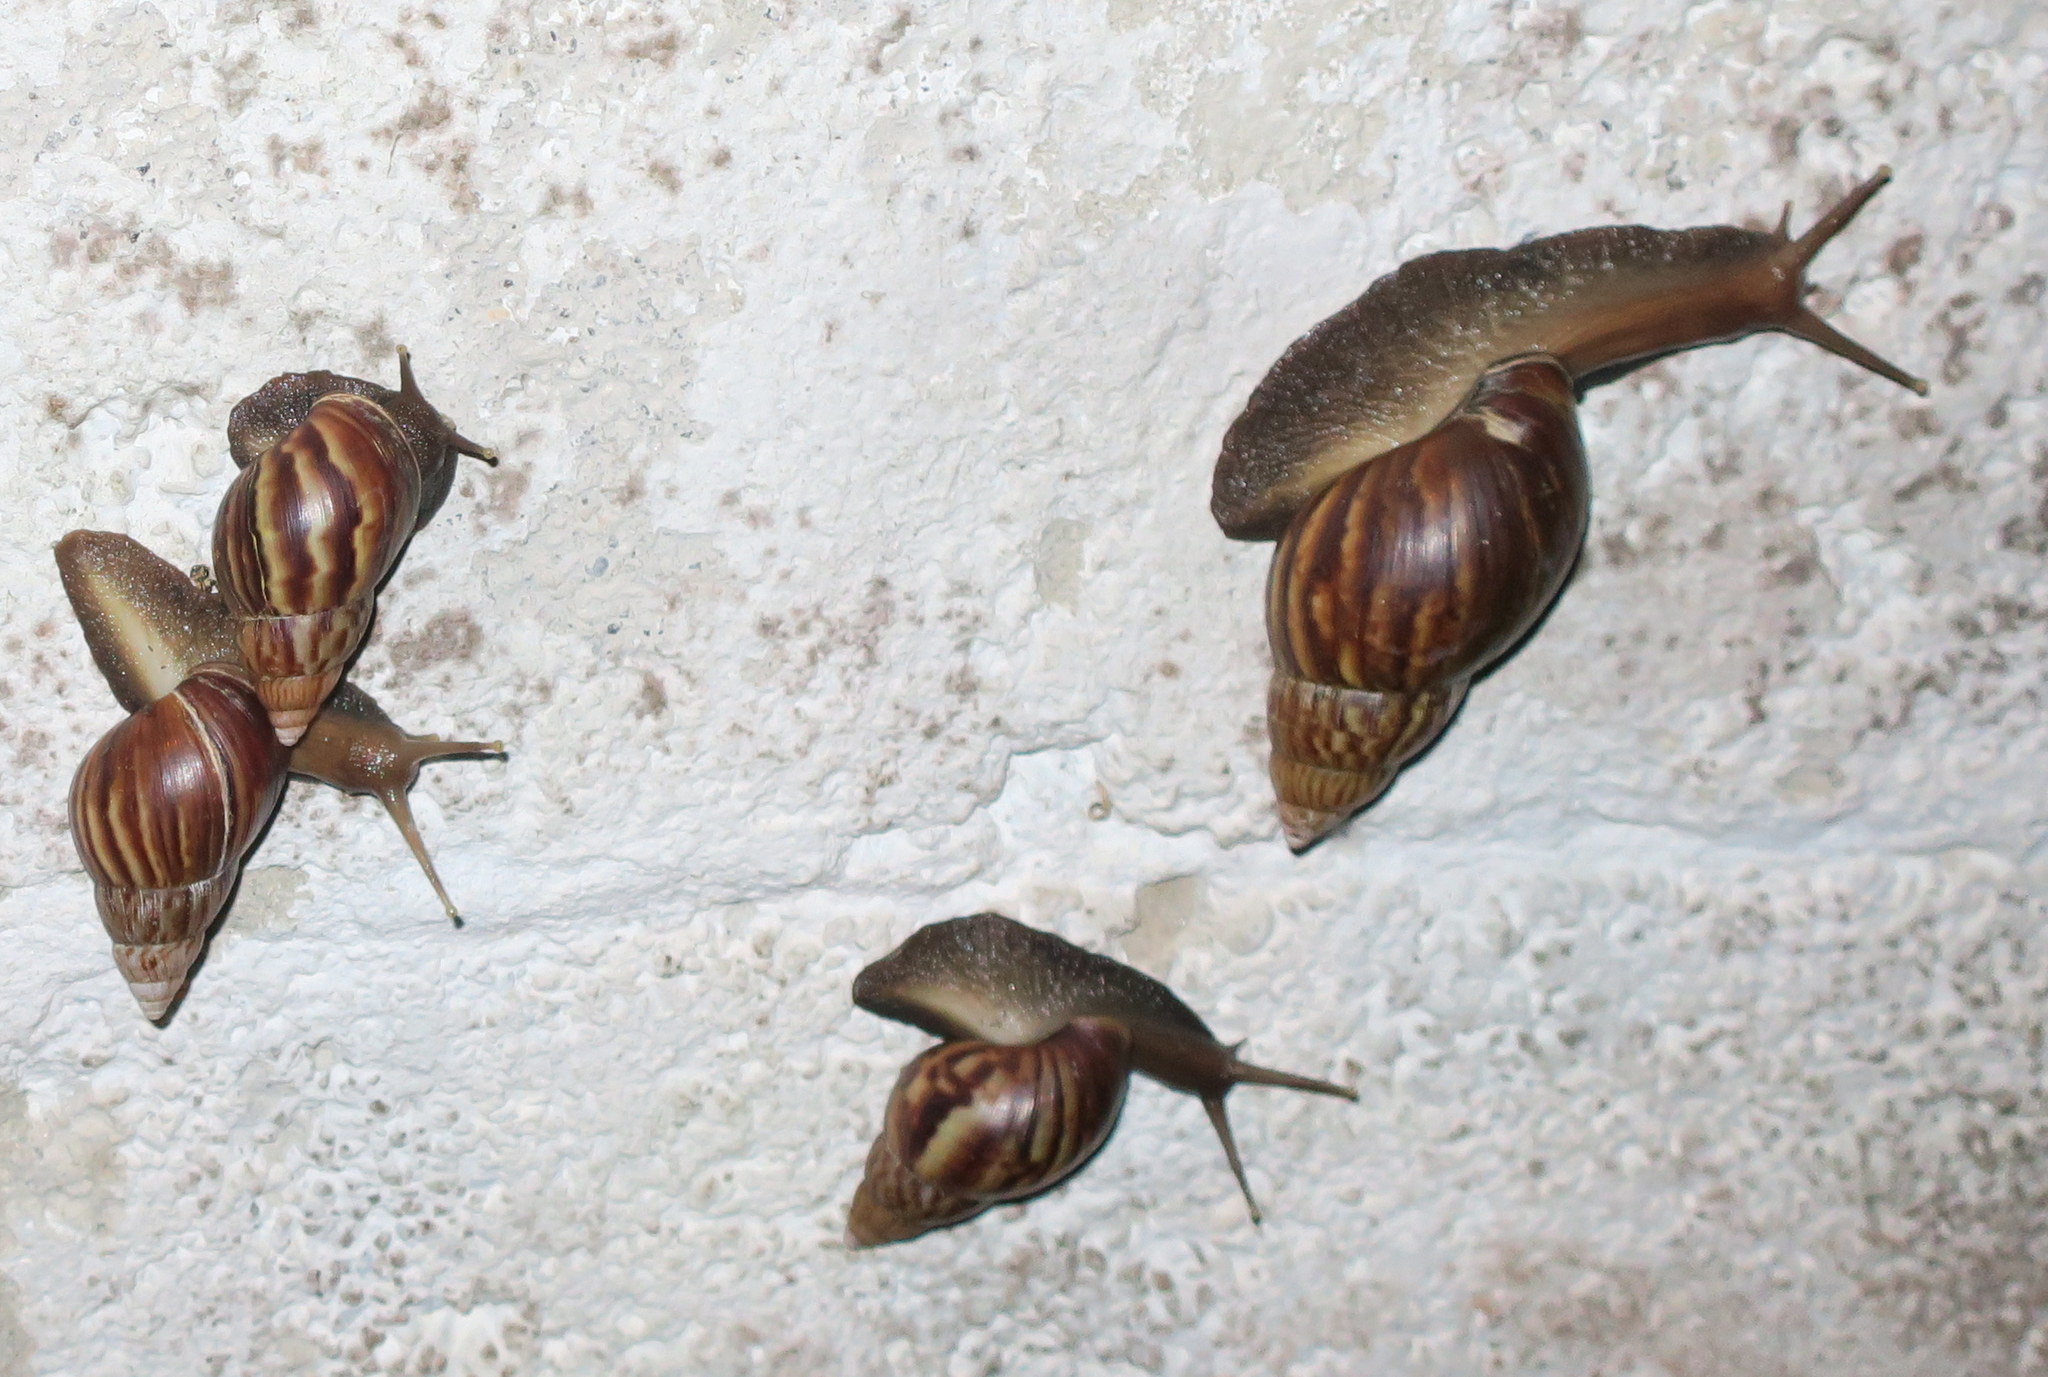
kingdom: Animalia
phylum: Mollusca
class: Gastropoda
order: Stylommatophora
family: Achatinidae
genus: Lissachatina
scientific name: Lissachatina fulica
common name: Giant african snail
